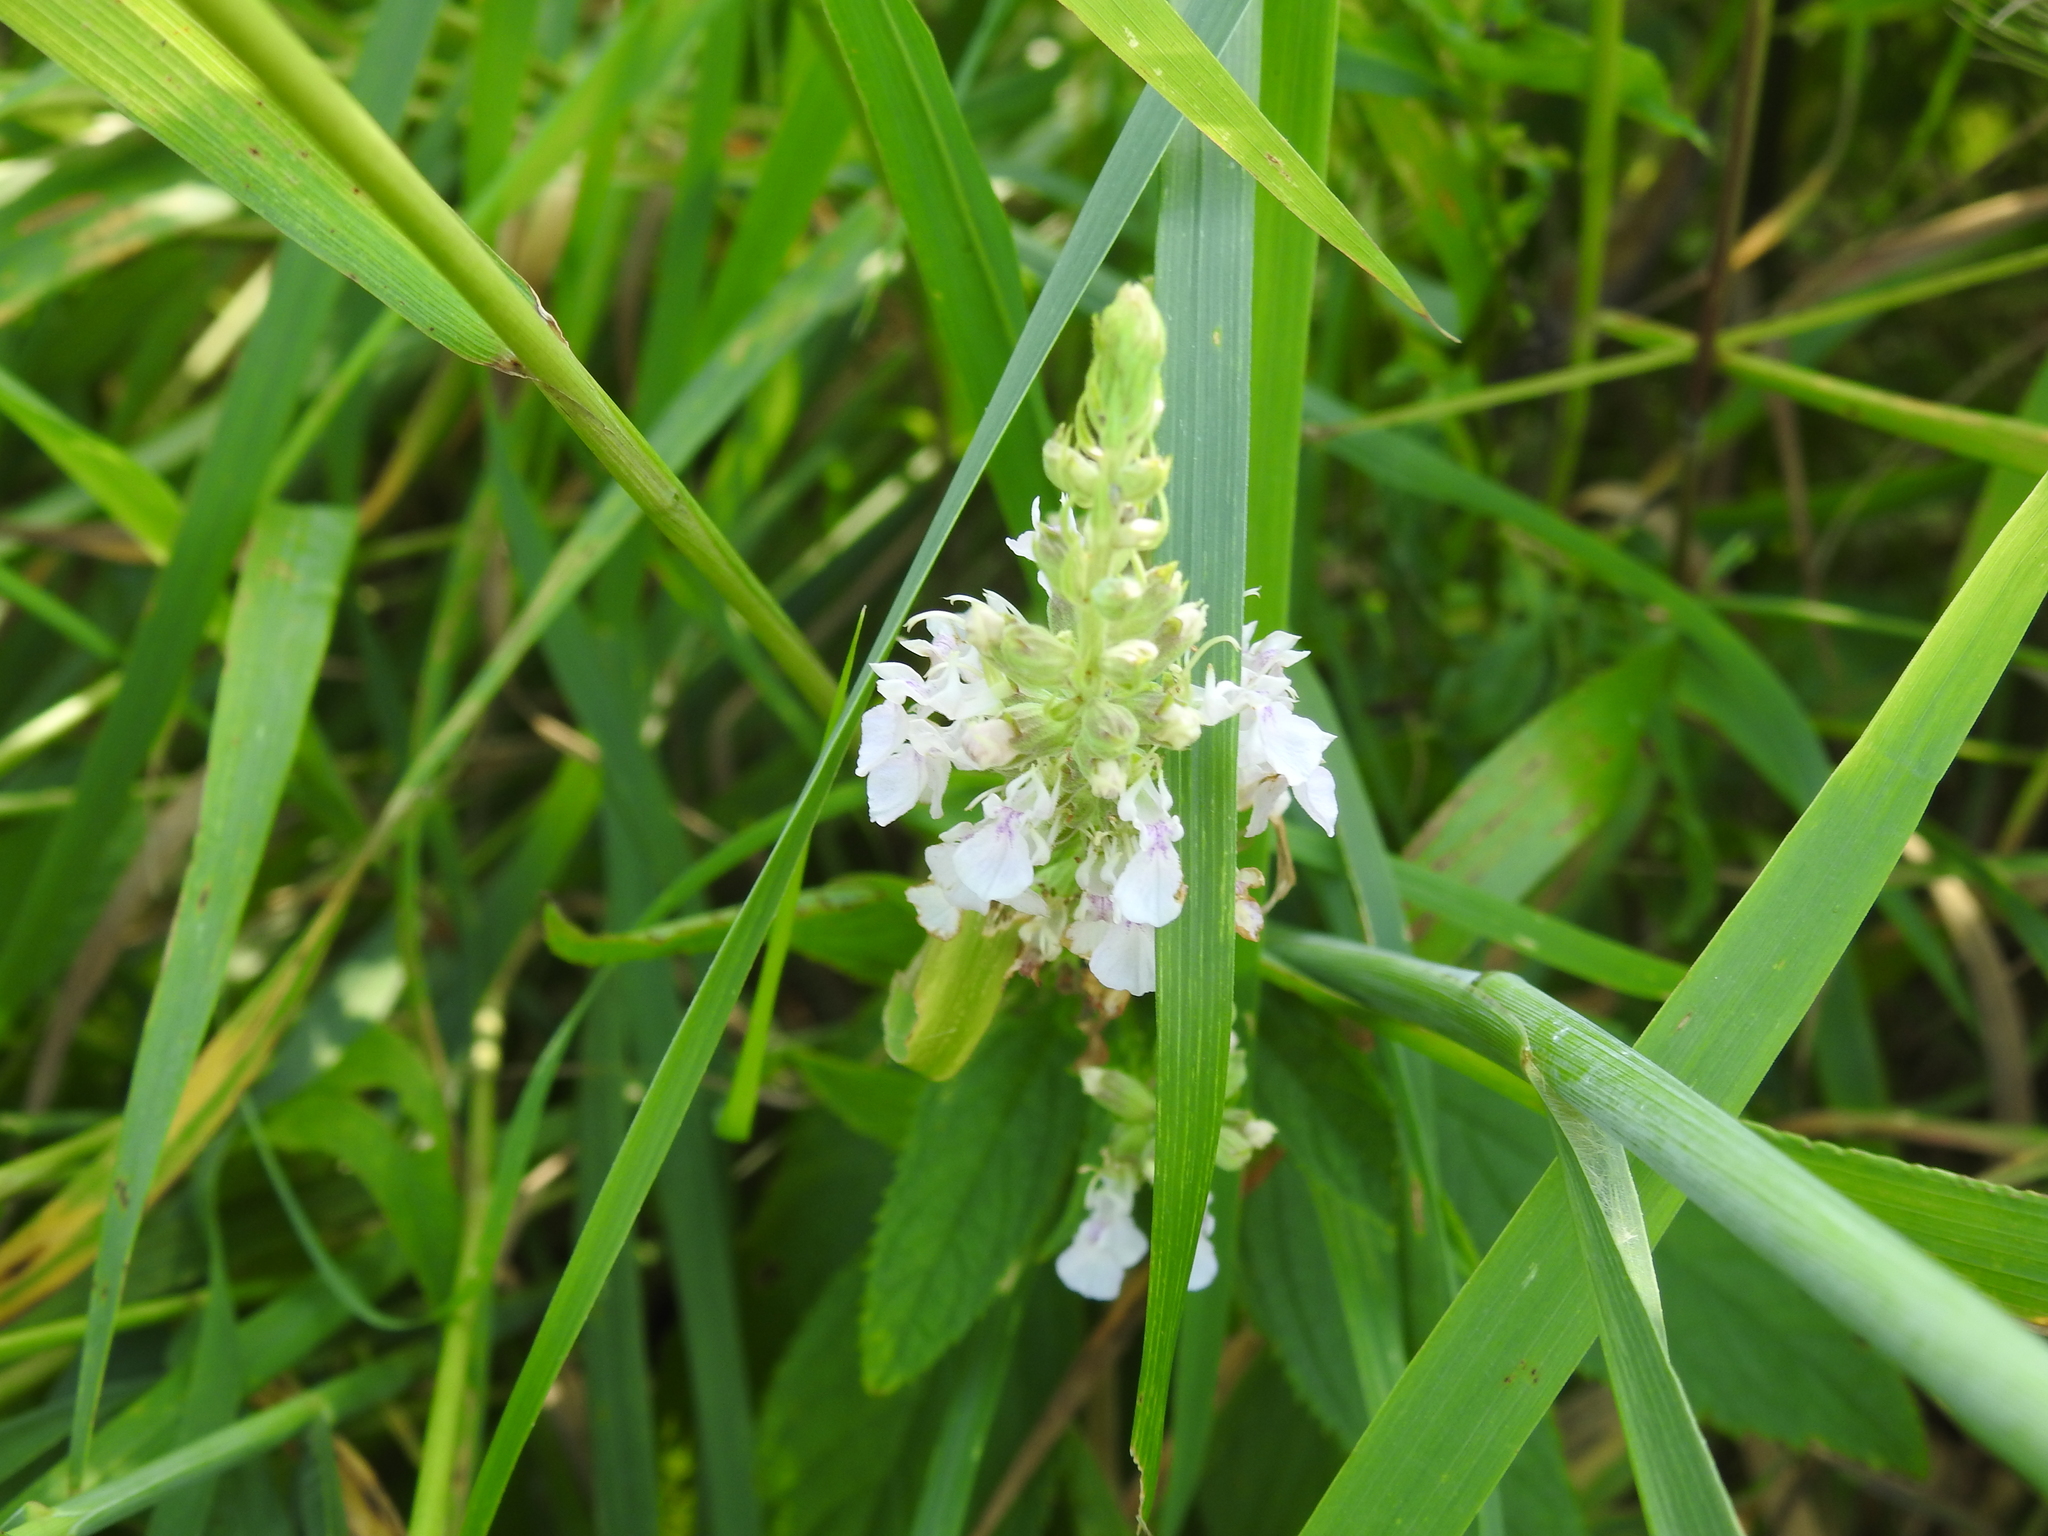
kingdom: Plantae
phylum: Tracheophyta
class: Magnoliopsida
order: Lamiales
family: Lamiaceae
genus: Teucrium
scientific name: Teucrium canadense
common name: American germander
